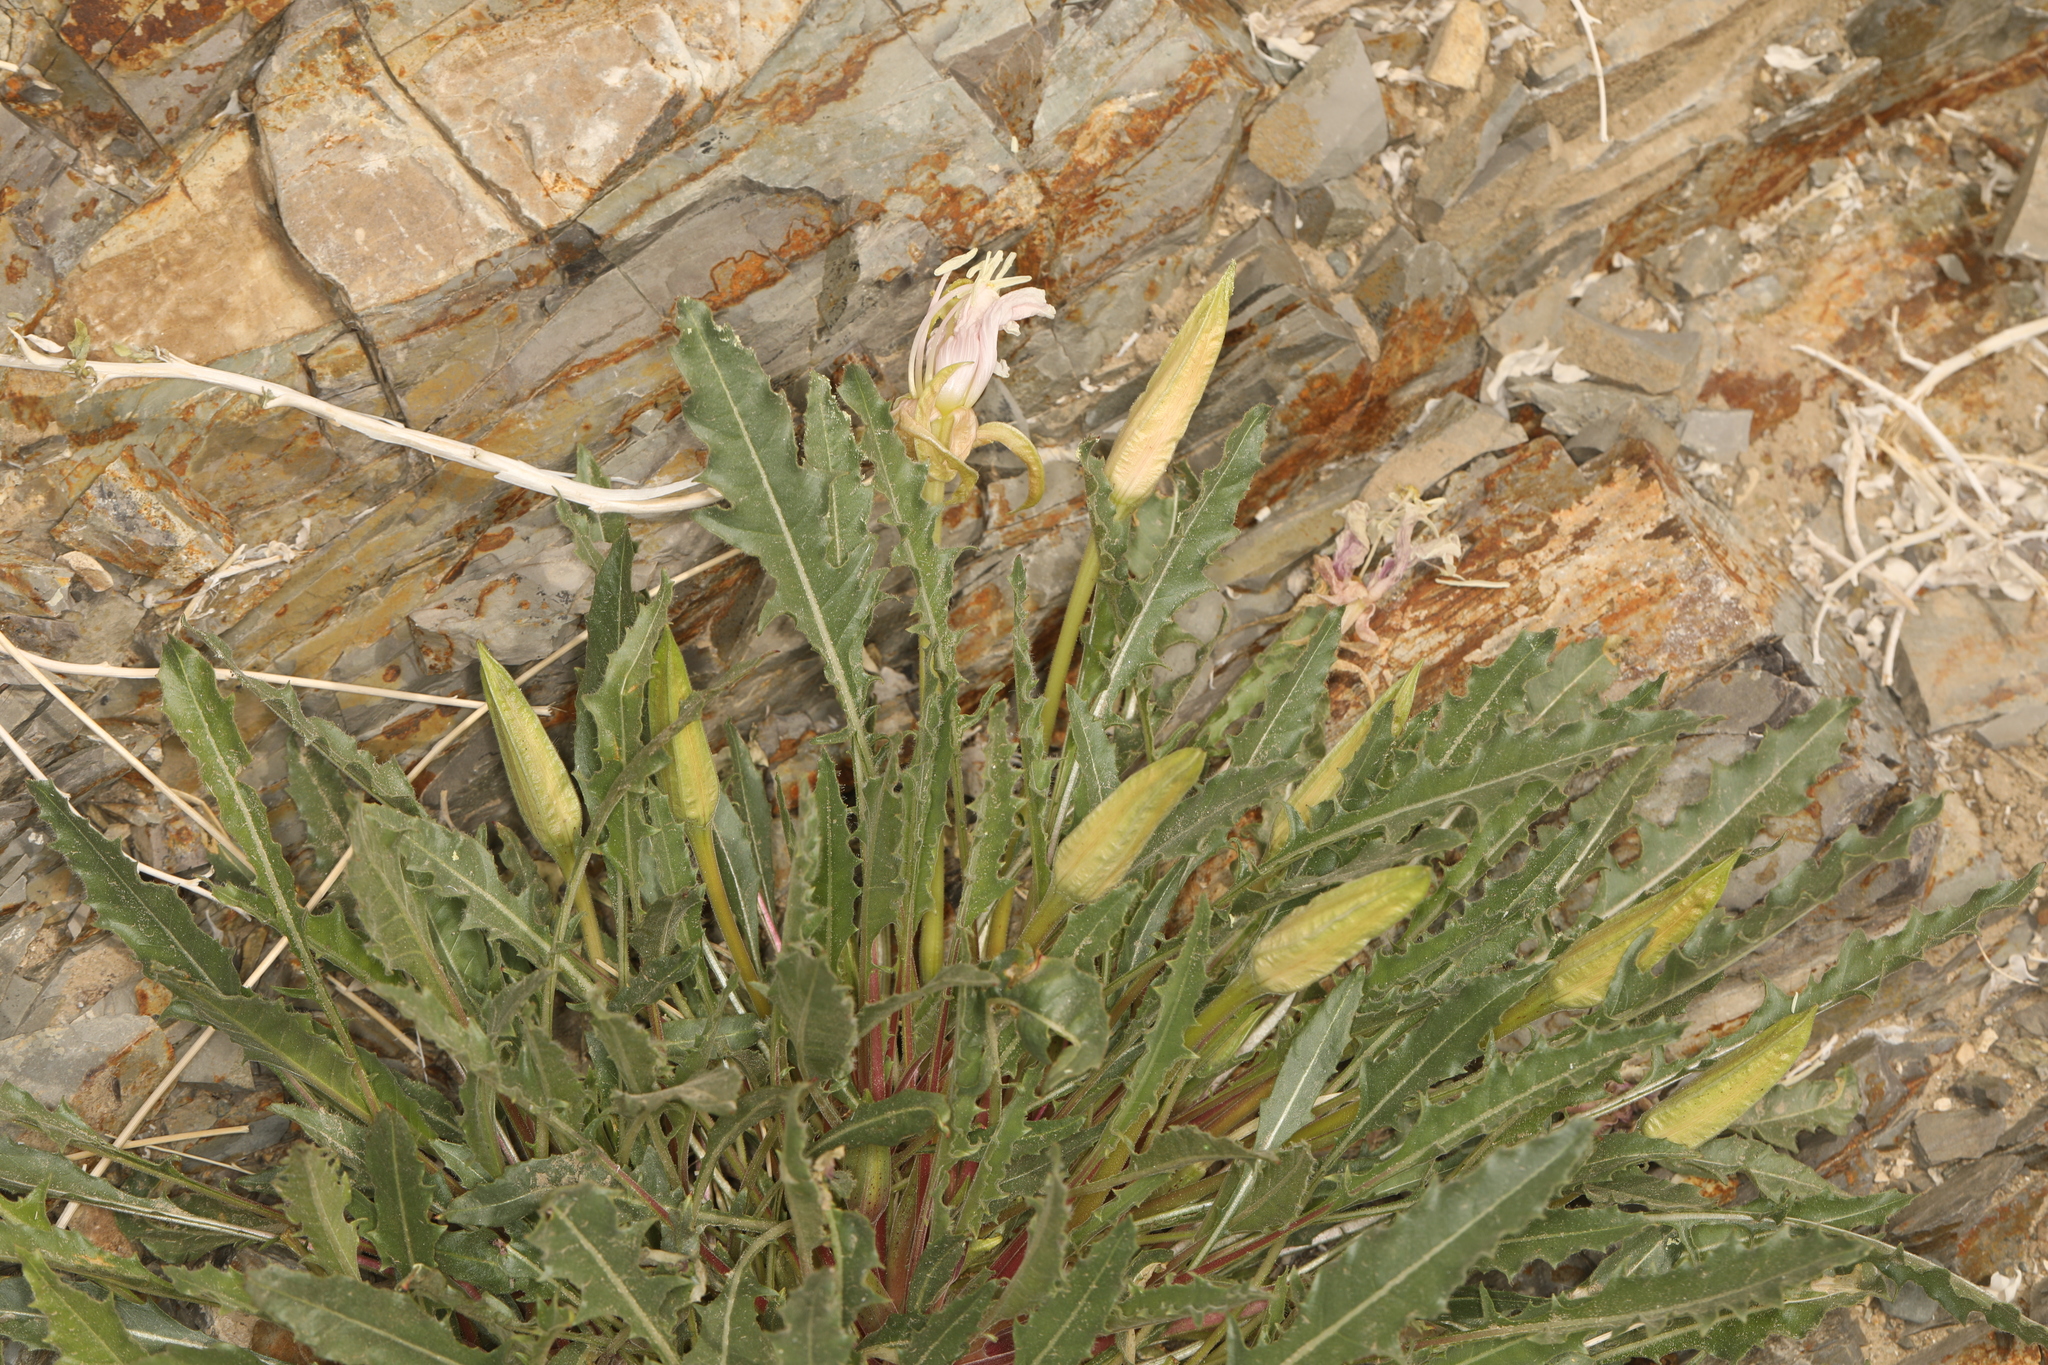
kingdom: Plantae
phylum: Tracheophyta
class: Magnoliopsida
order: Myrtales
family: Onagraceae
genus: Oenothera
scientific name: Oenothera cespitosa
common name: Tufted evening-primrose
